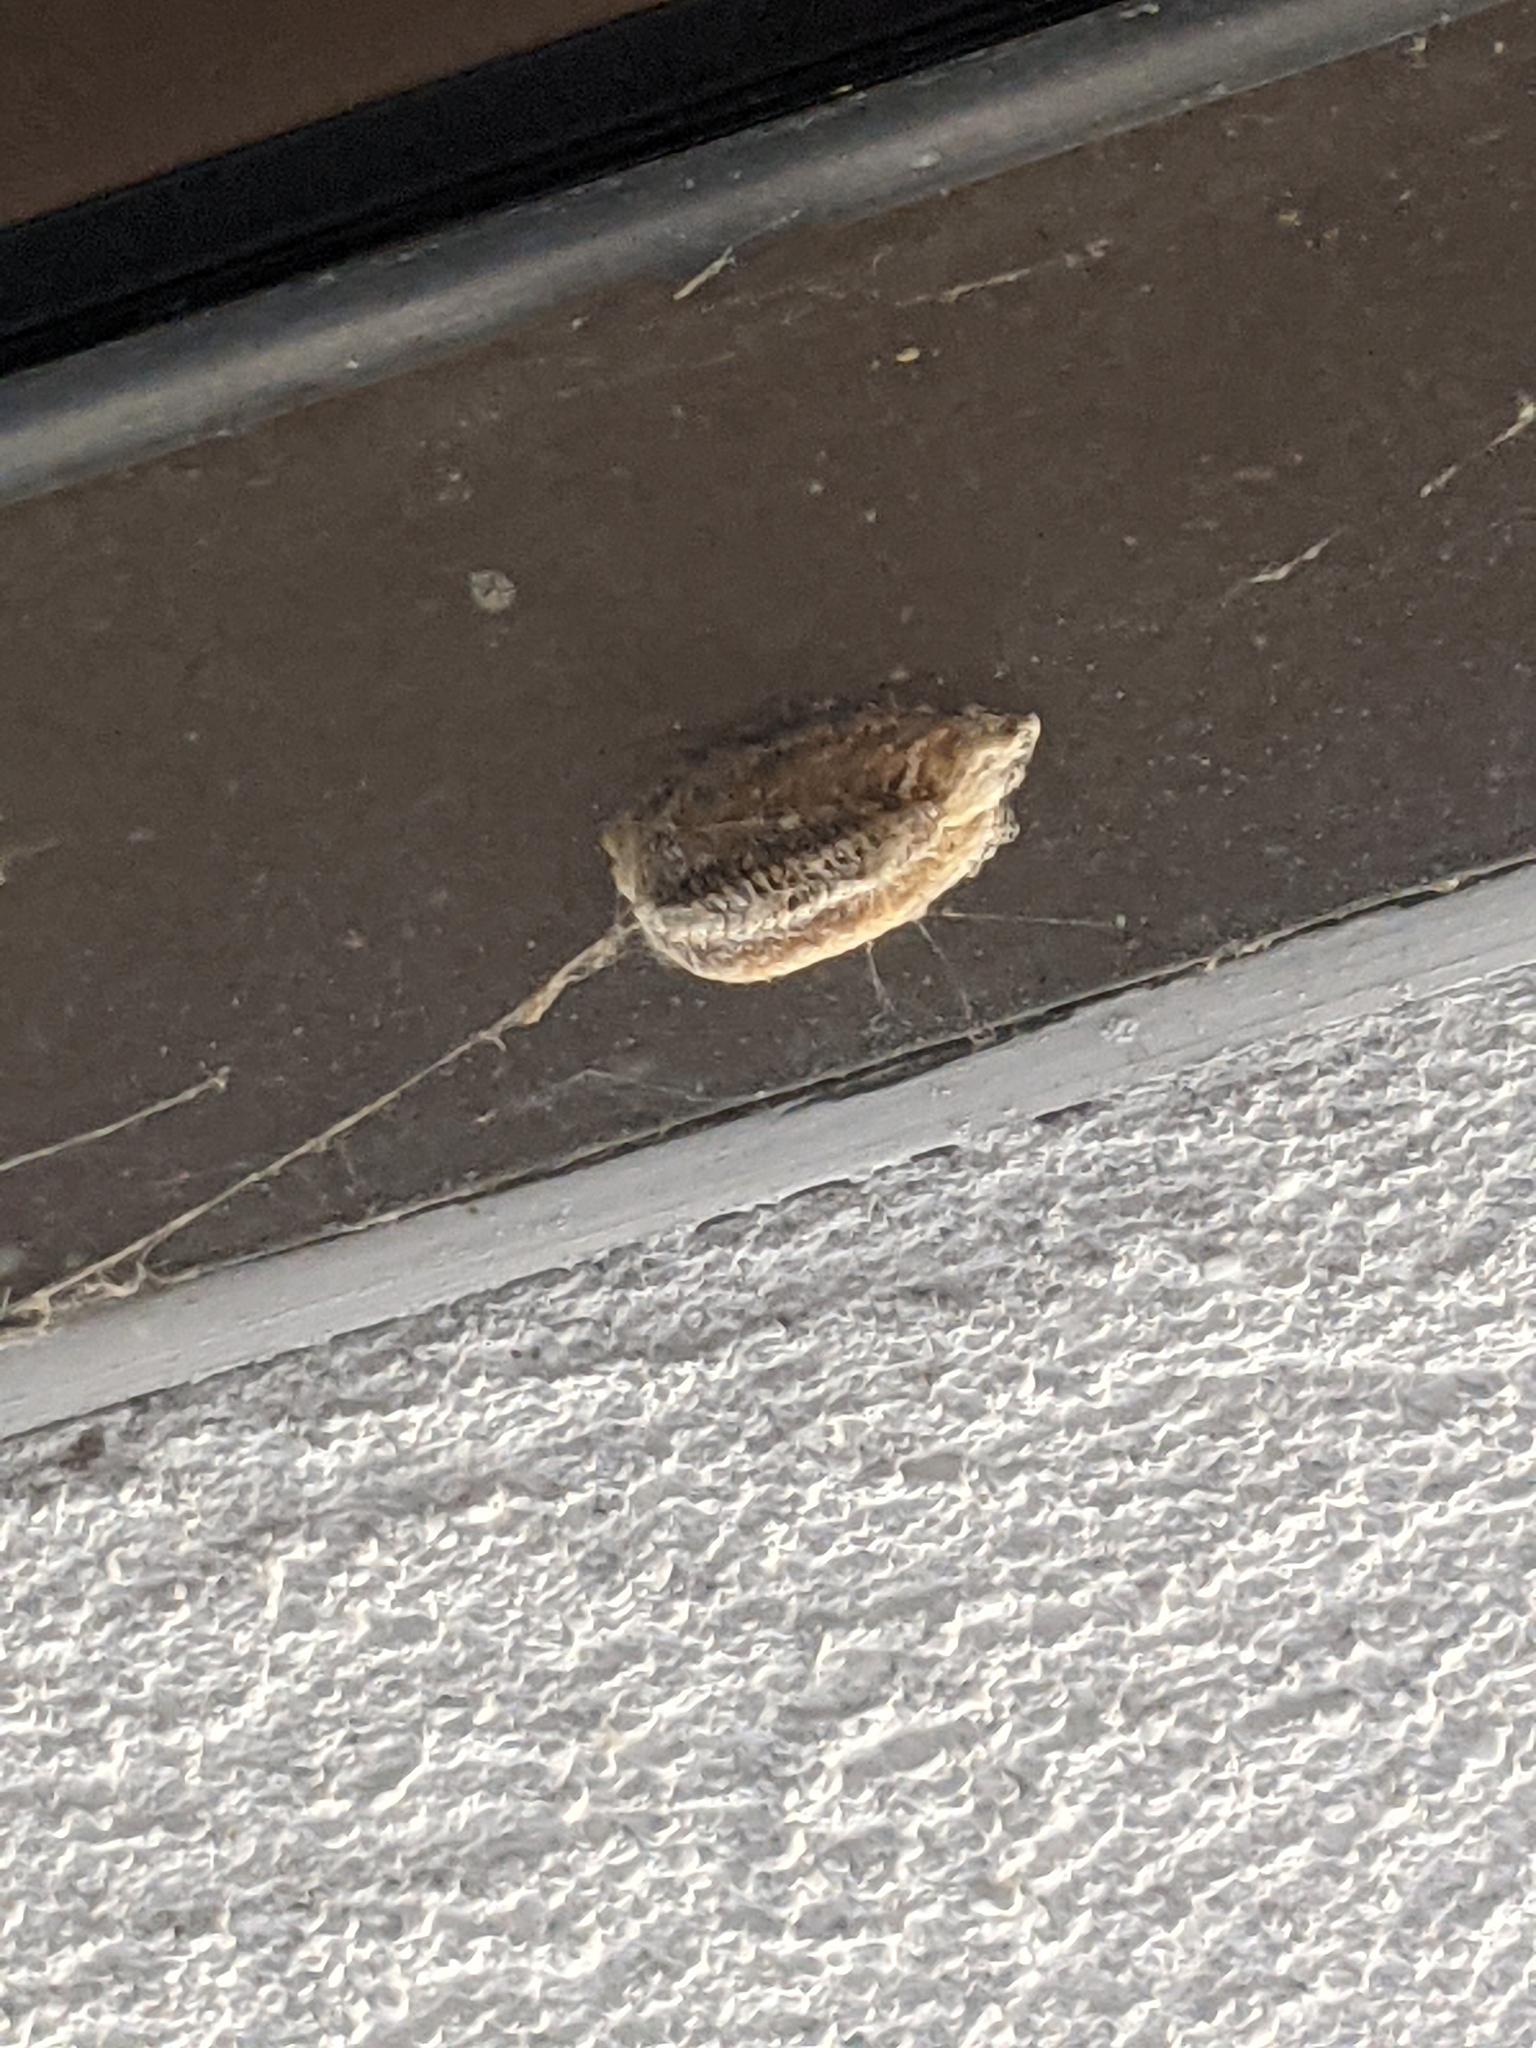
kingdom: Animalia
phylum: Arthropoda
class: Insecta
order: Mantodea
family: Mantidae
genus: Stagmomantis
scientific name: Stagmomantis carolina
